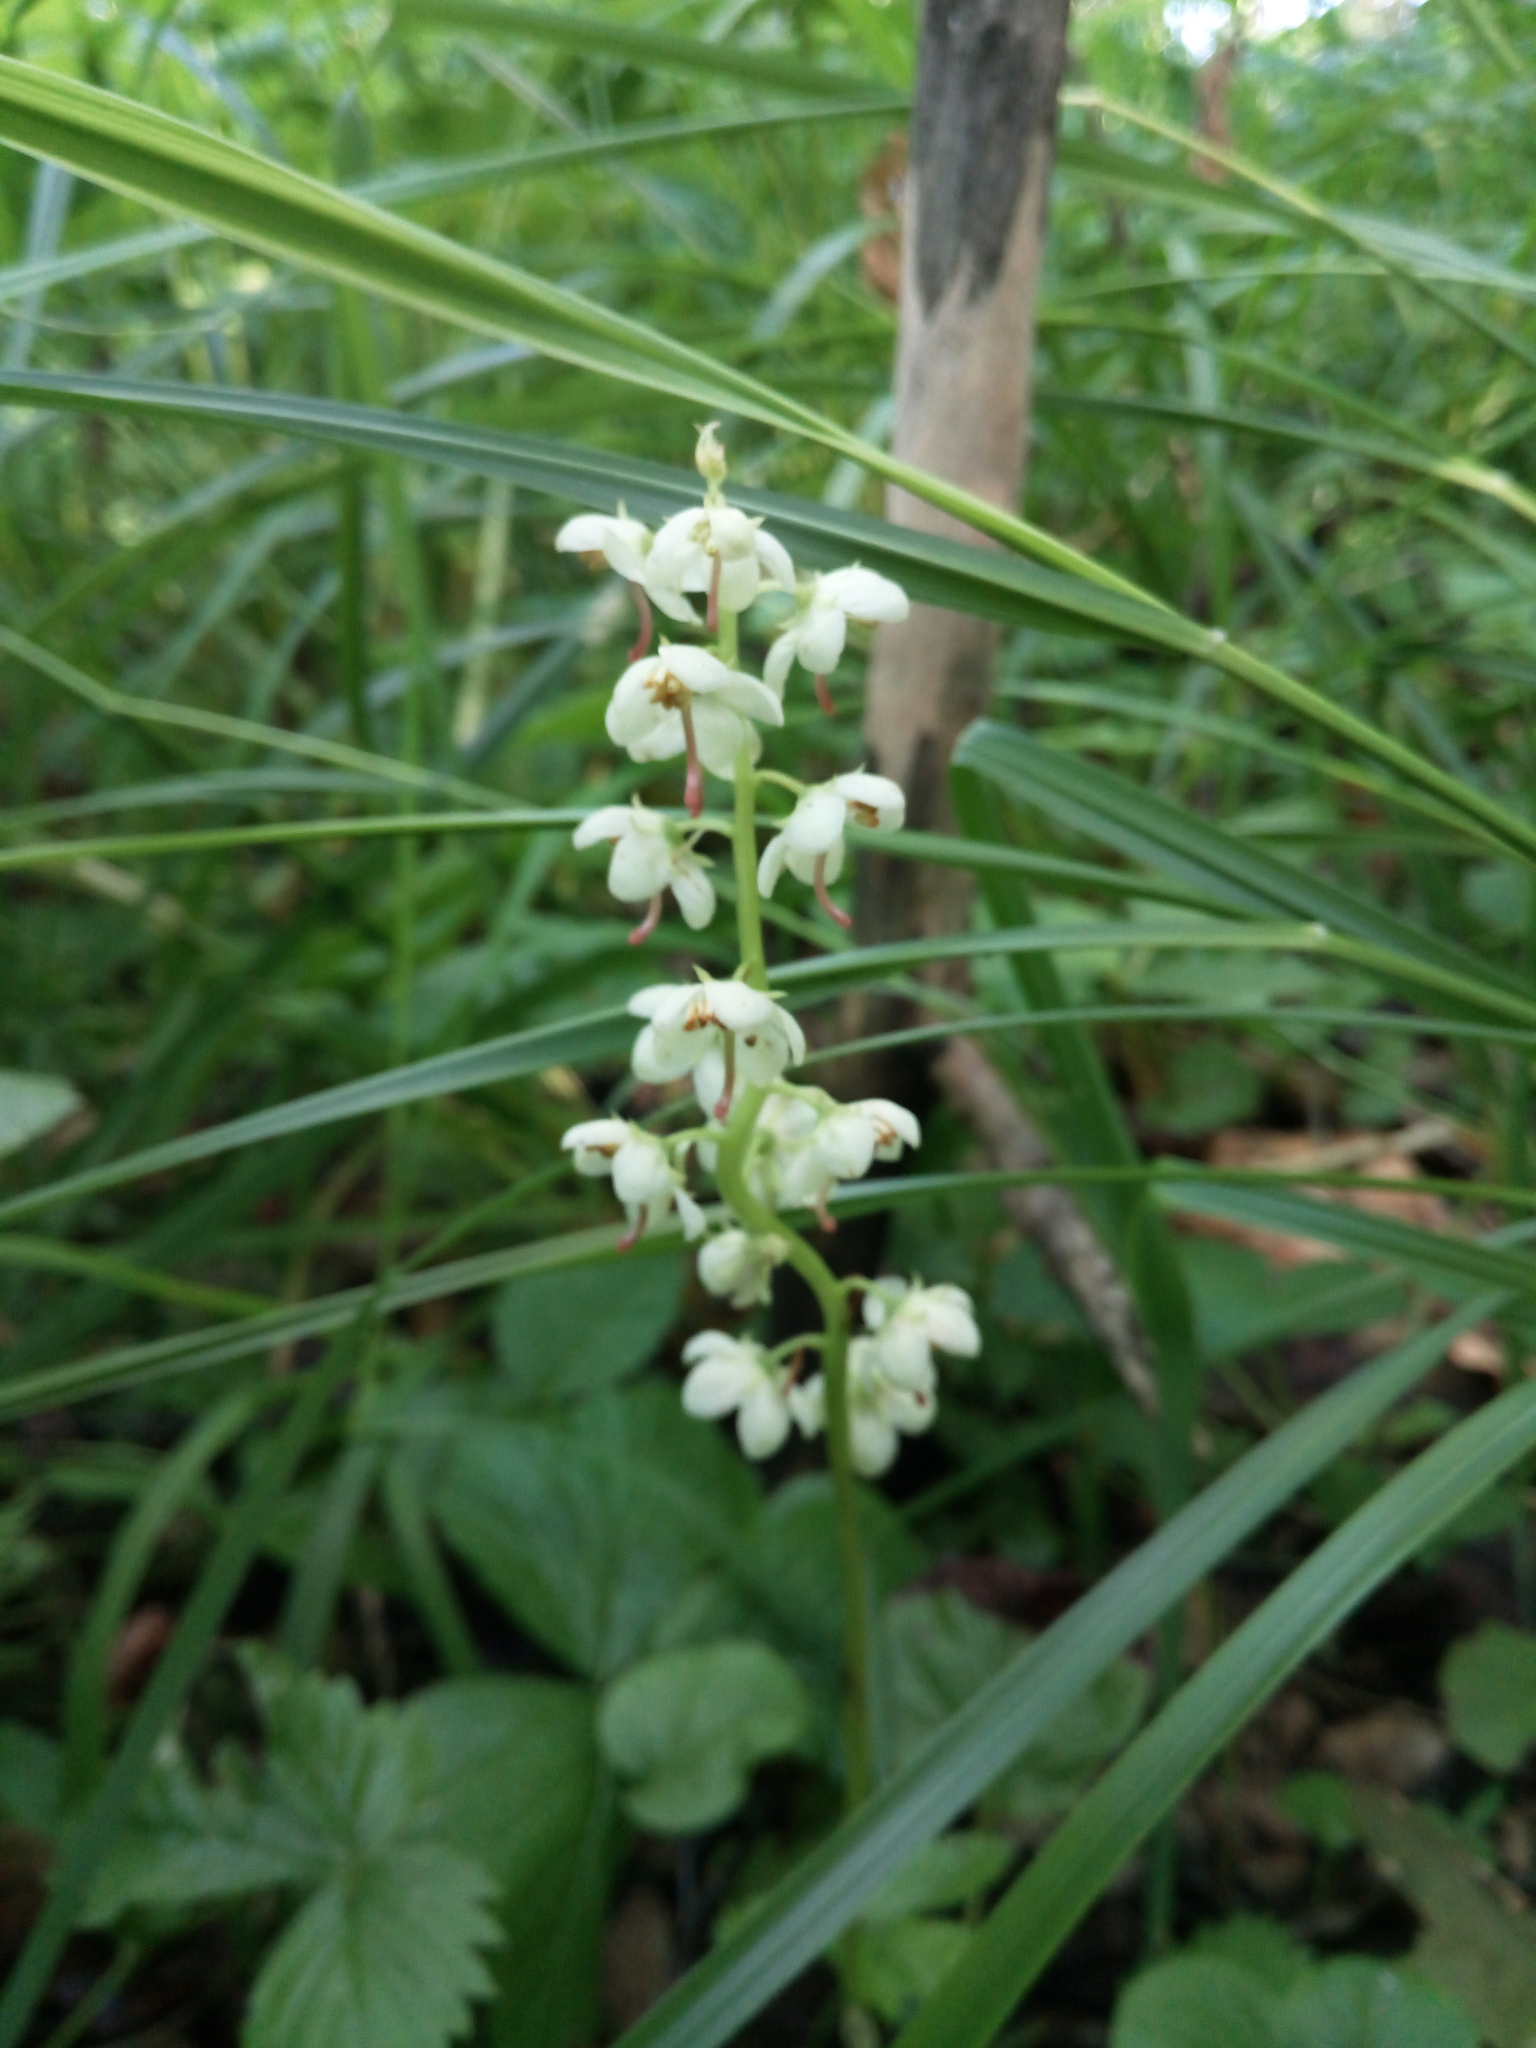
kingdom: Plantae
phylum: Tracheophyta
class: Magnoliopsida
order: Ericales
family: Ericaceae
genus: Pyrola
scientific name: Pyrola rotundifolia
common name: Round-leaved wintergreen
